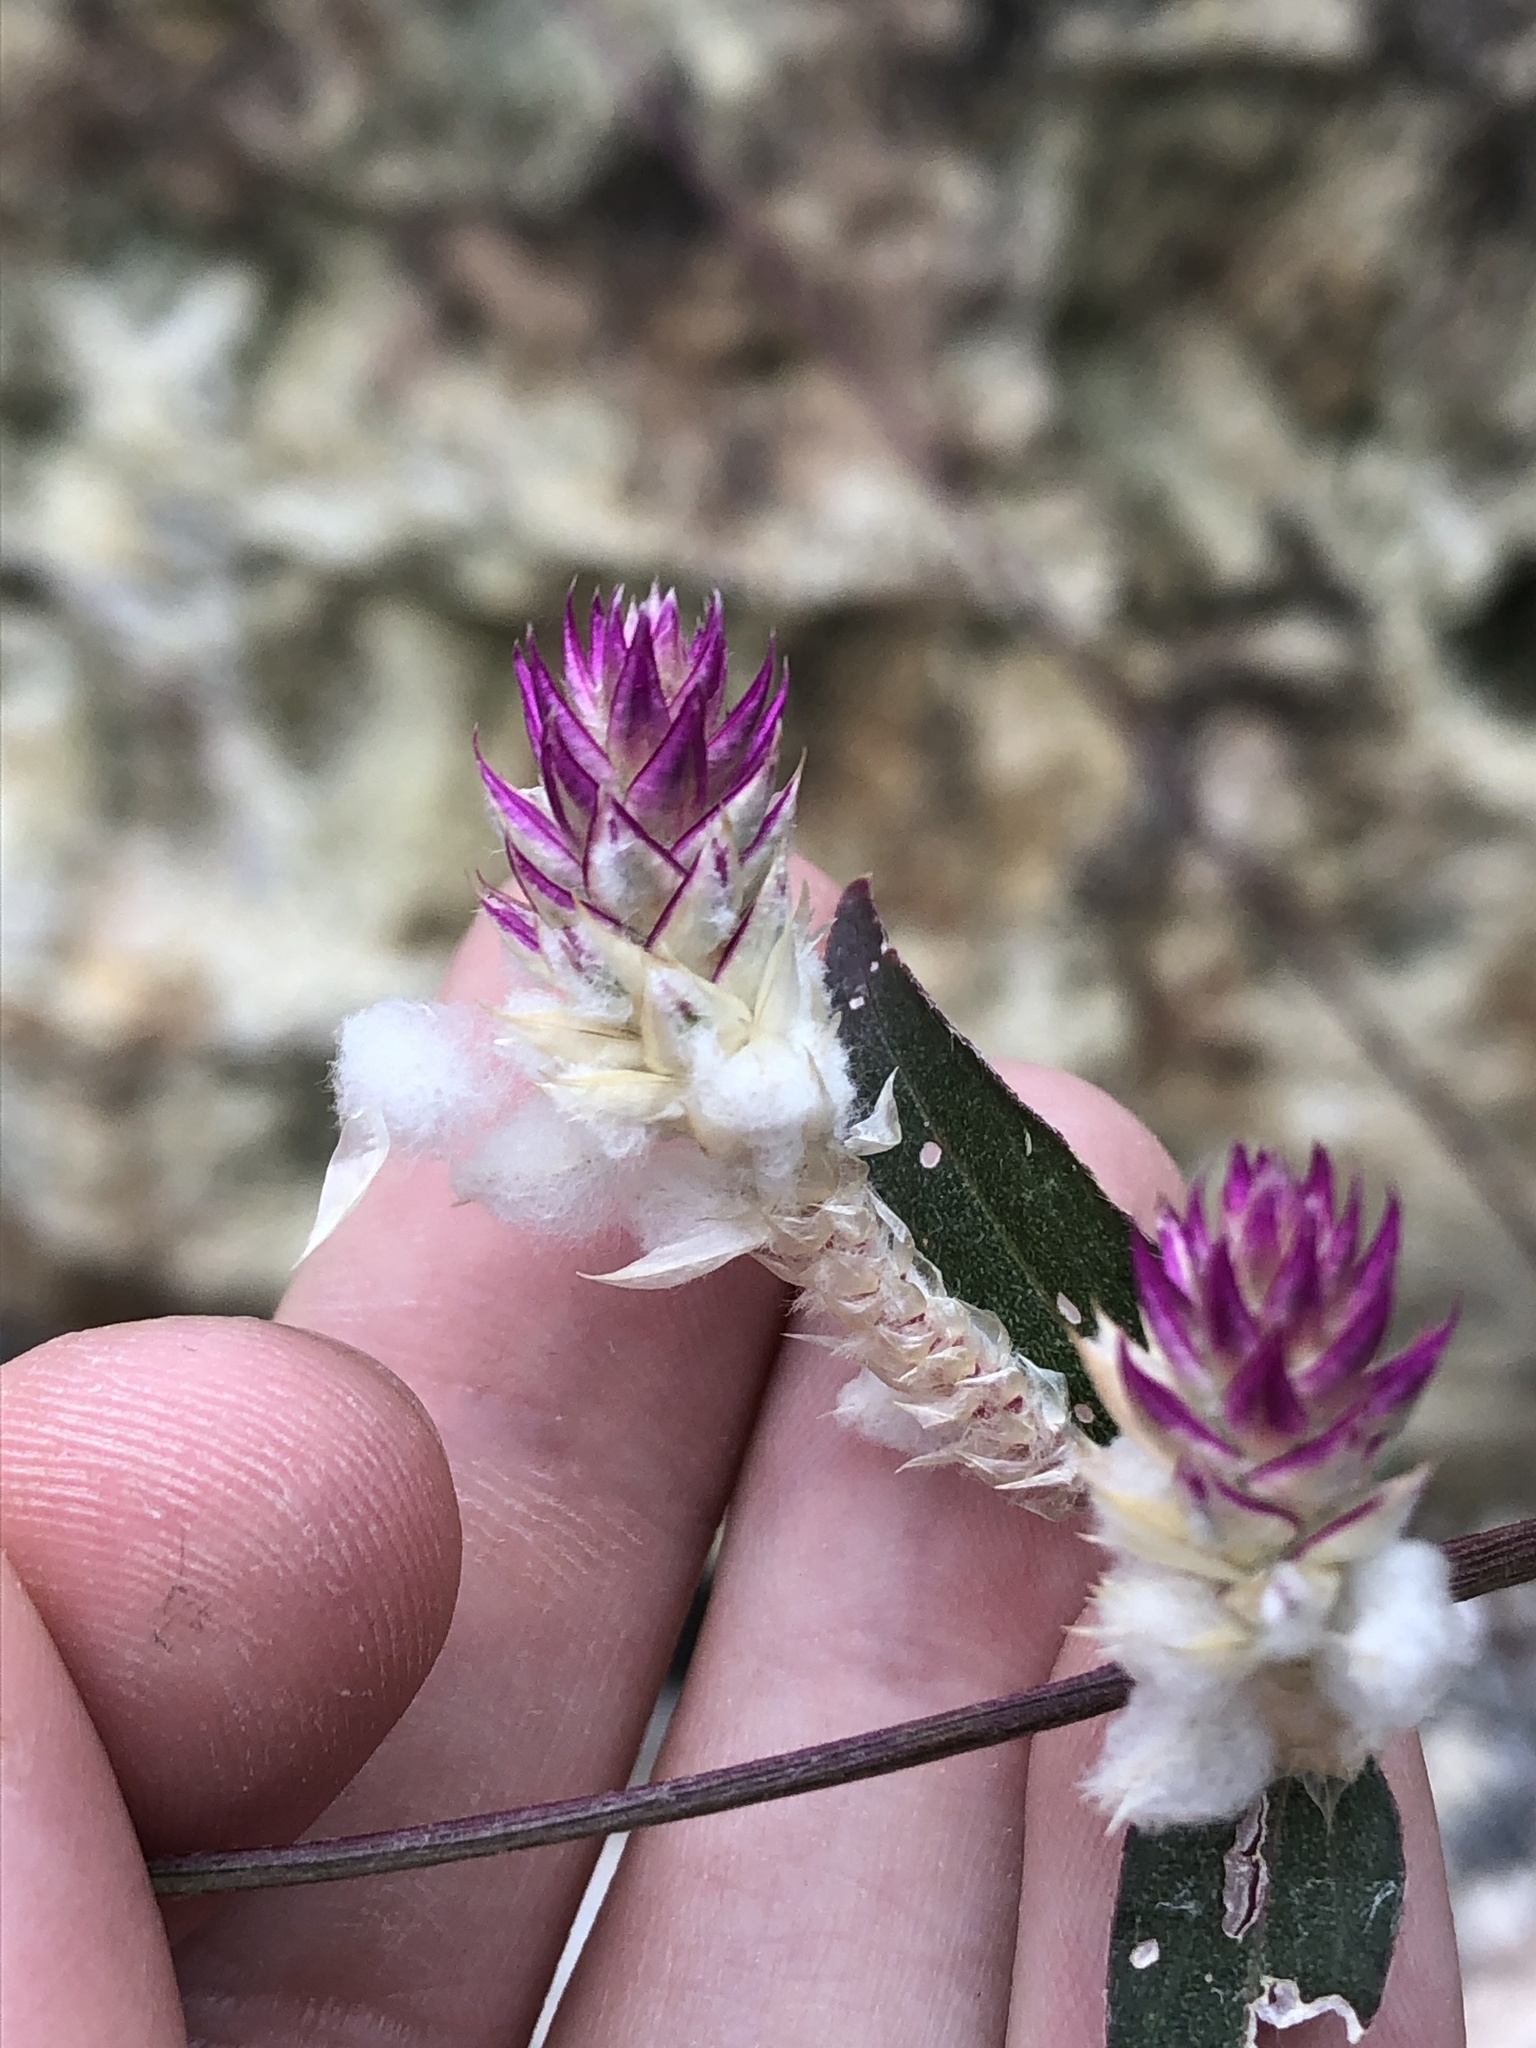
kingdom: Plantae
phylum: Tracheophyta
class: Magnoliopsida
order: Caryophyllales
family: Amaranthaceae
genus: Gomphrena
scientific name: Gomphrena sonorae
